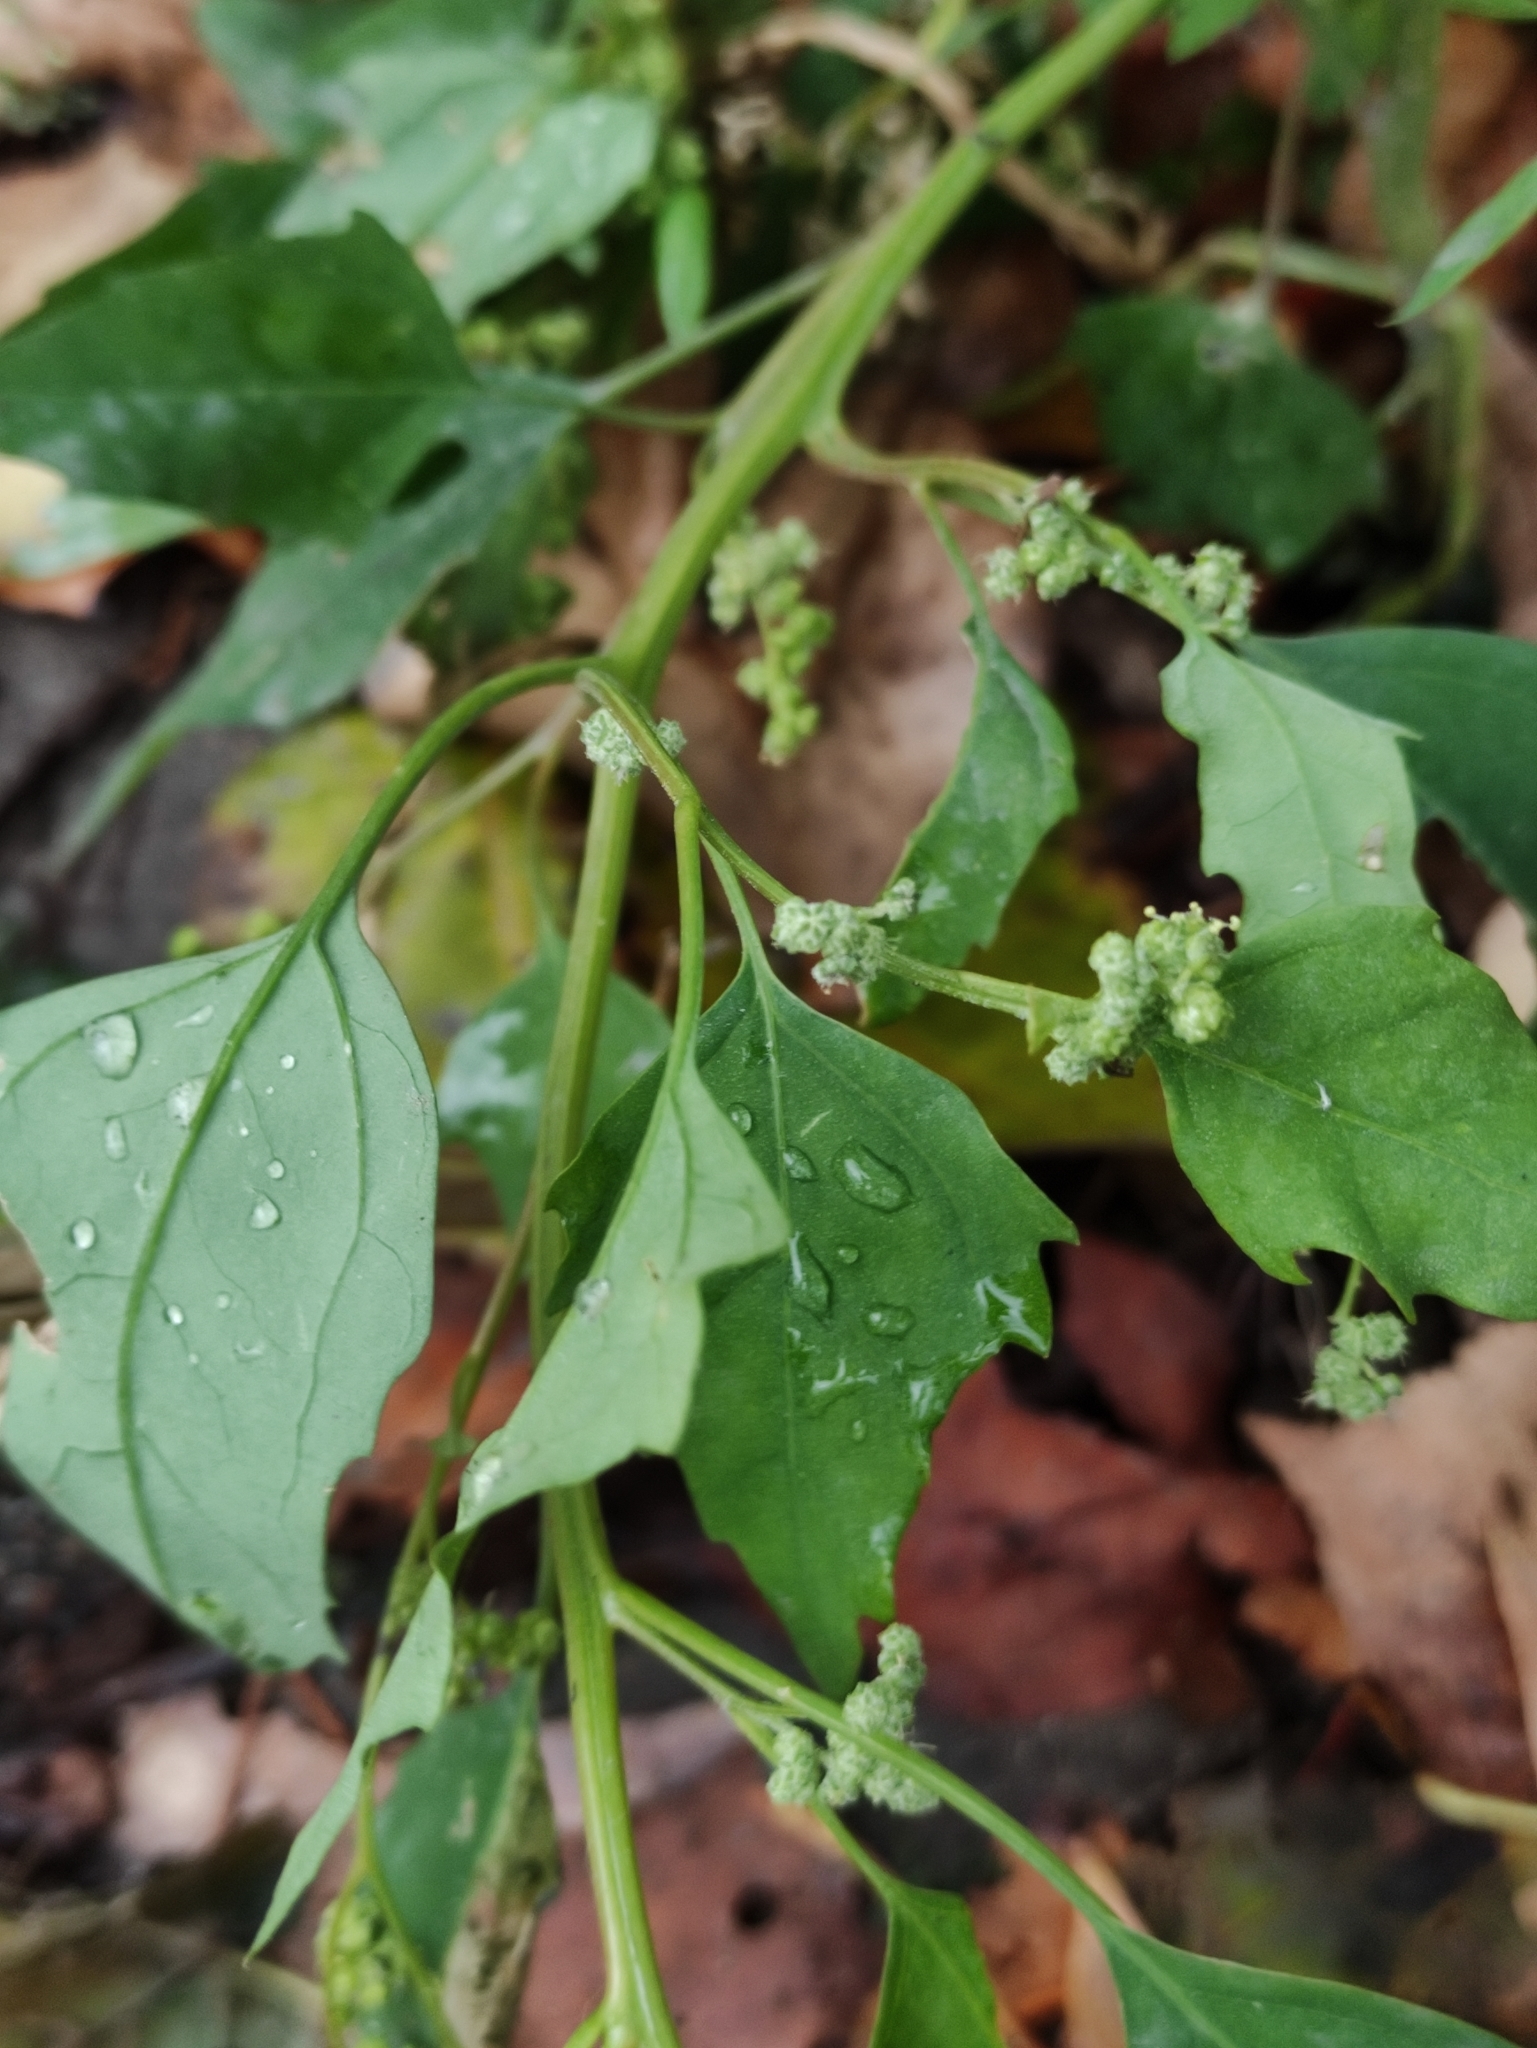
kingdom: Plantae
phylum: Tracheophyta
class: Magnoliopsida
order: Caryophyllales
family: Amaranthaceae
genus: Chenopodium
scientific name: Chenopodium album
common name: Fat-hen
